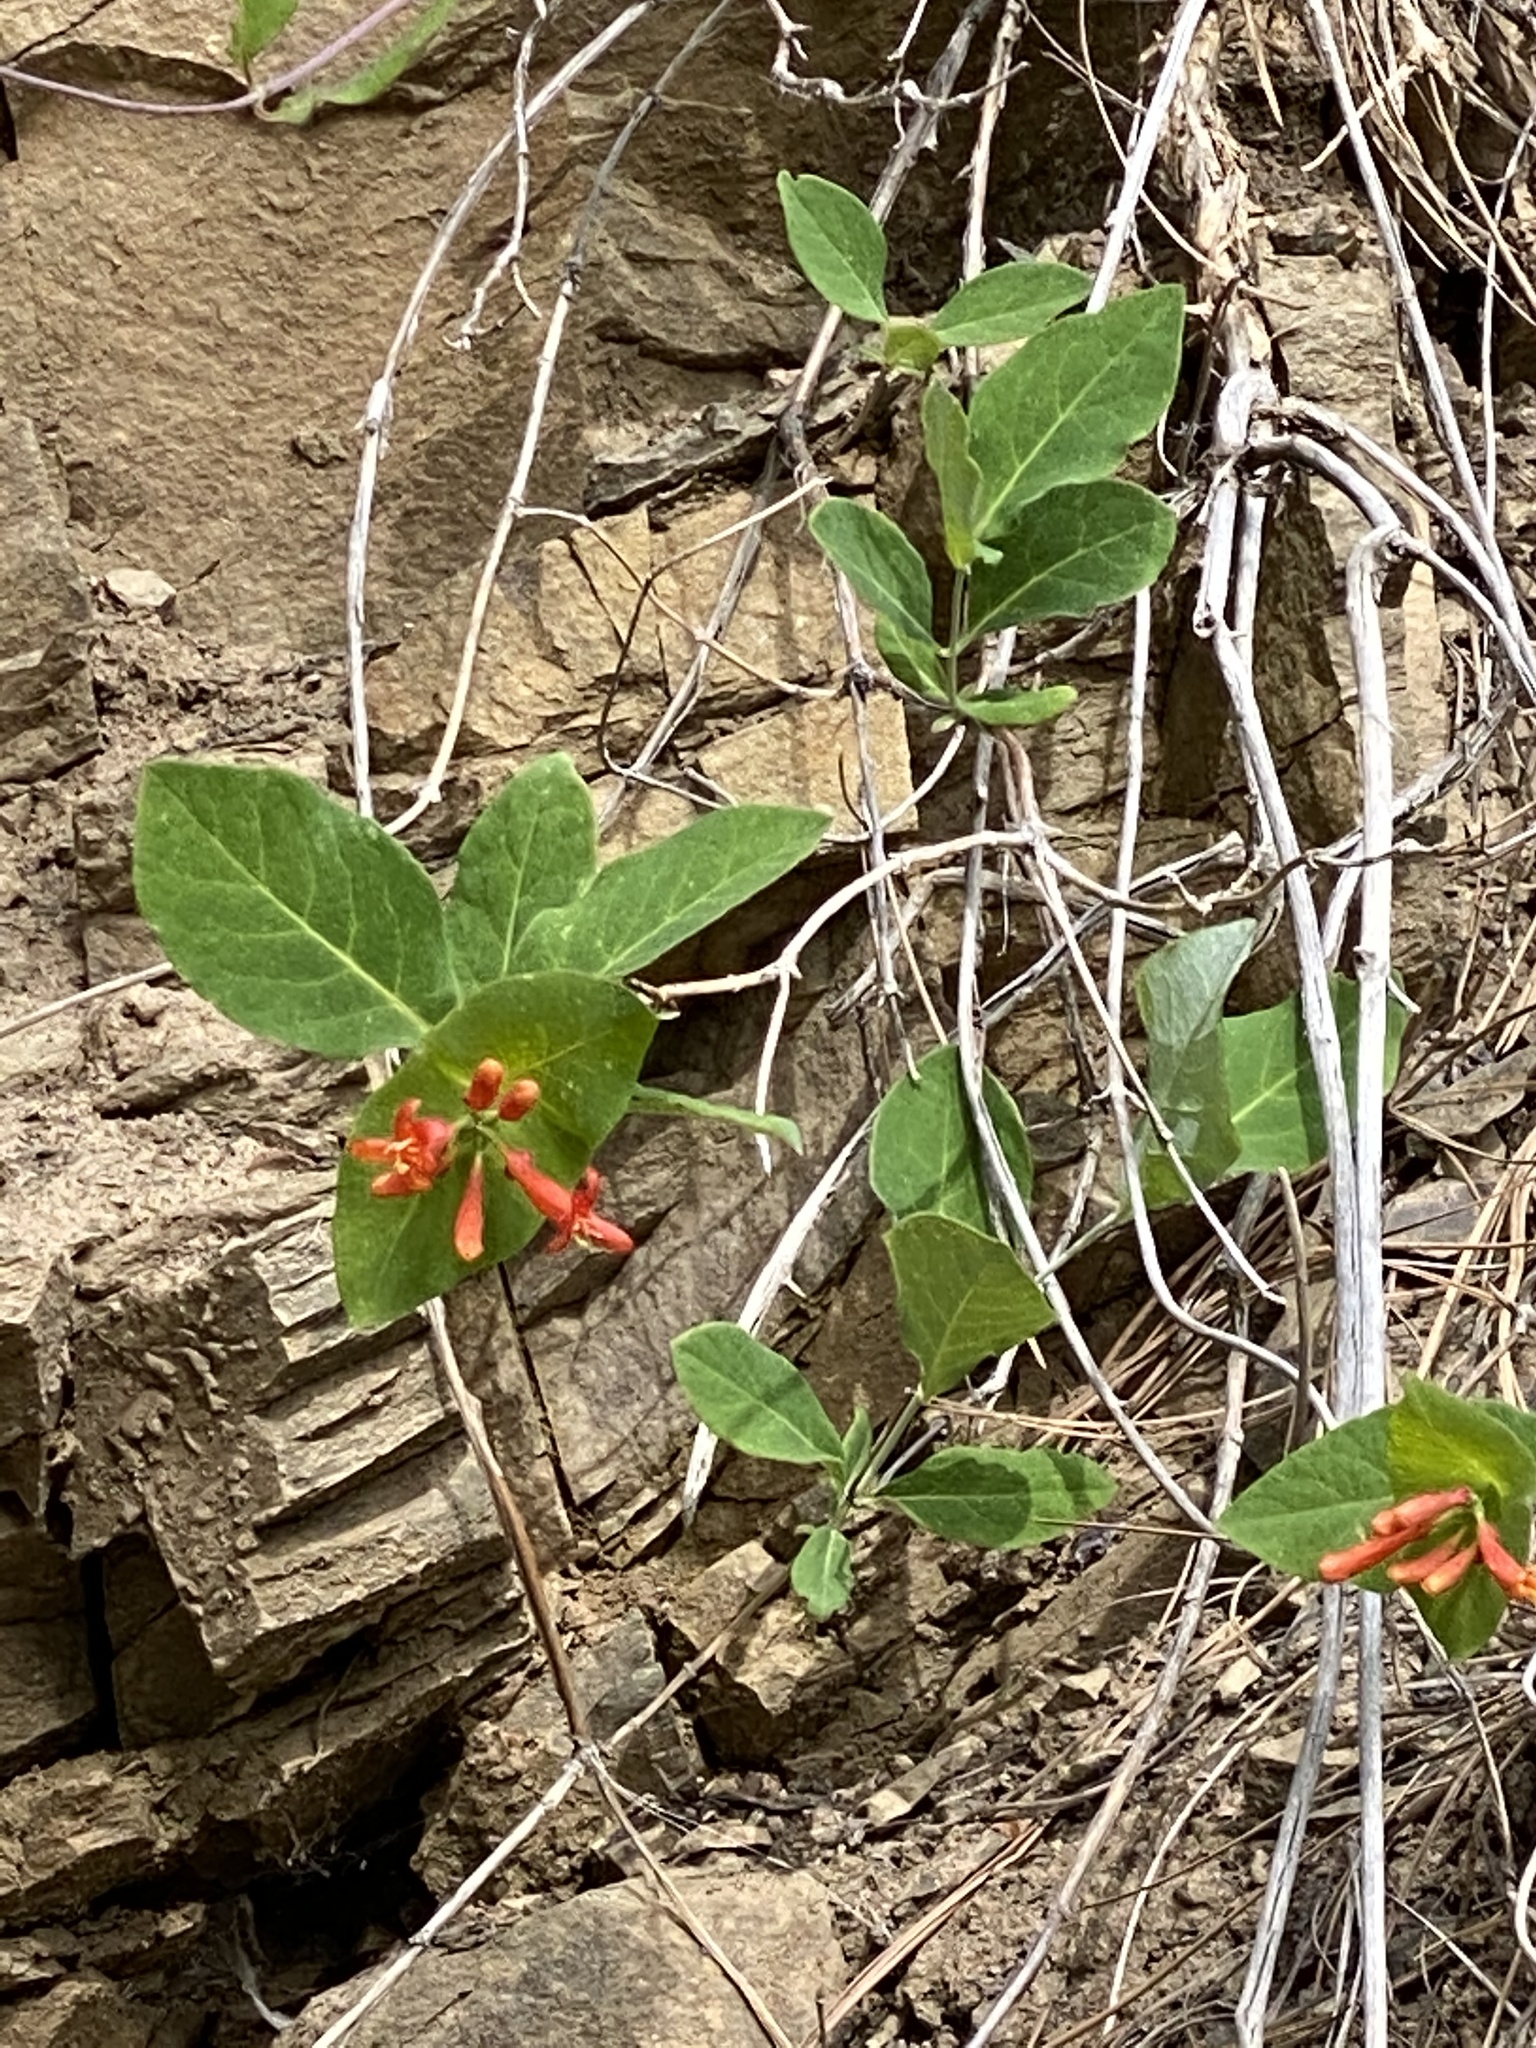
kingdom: Plantae
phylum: Tracheophyta
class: Magnoliopsida
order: Dipsacales
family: Caprifoliaceae
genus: Lonicera
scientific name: Lonicera ciliosa
